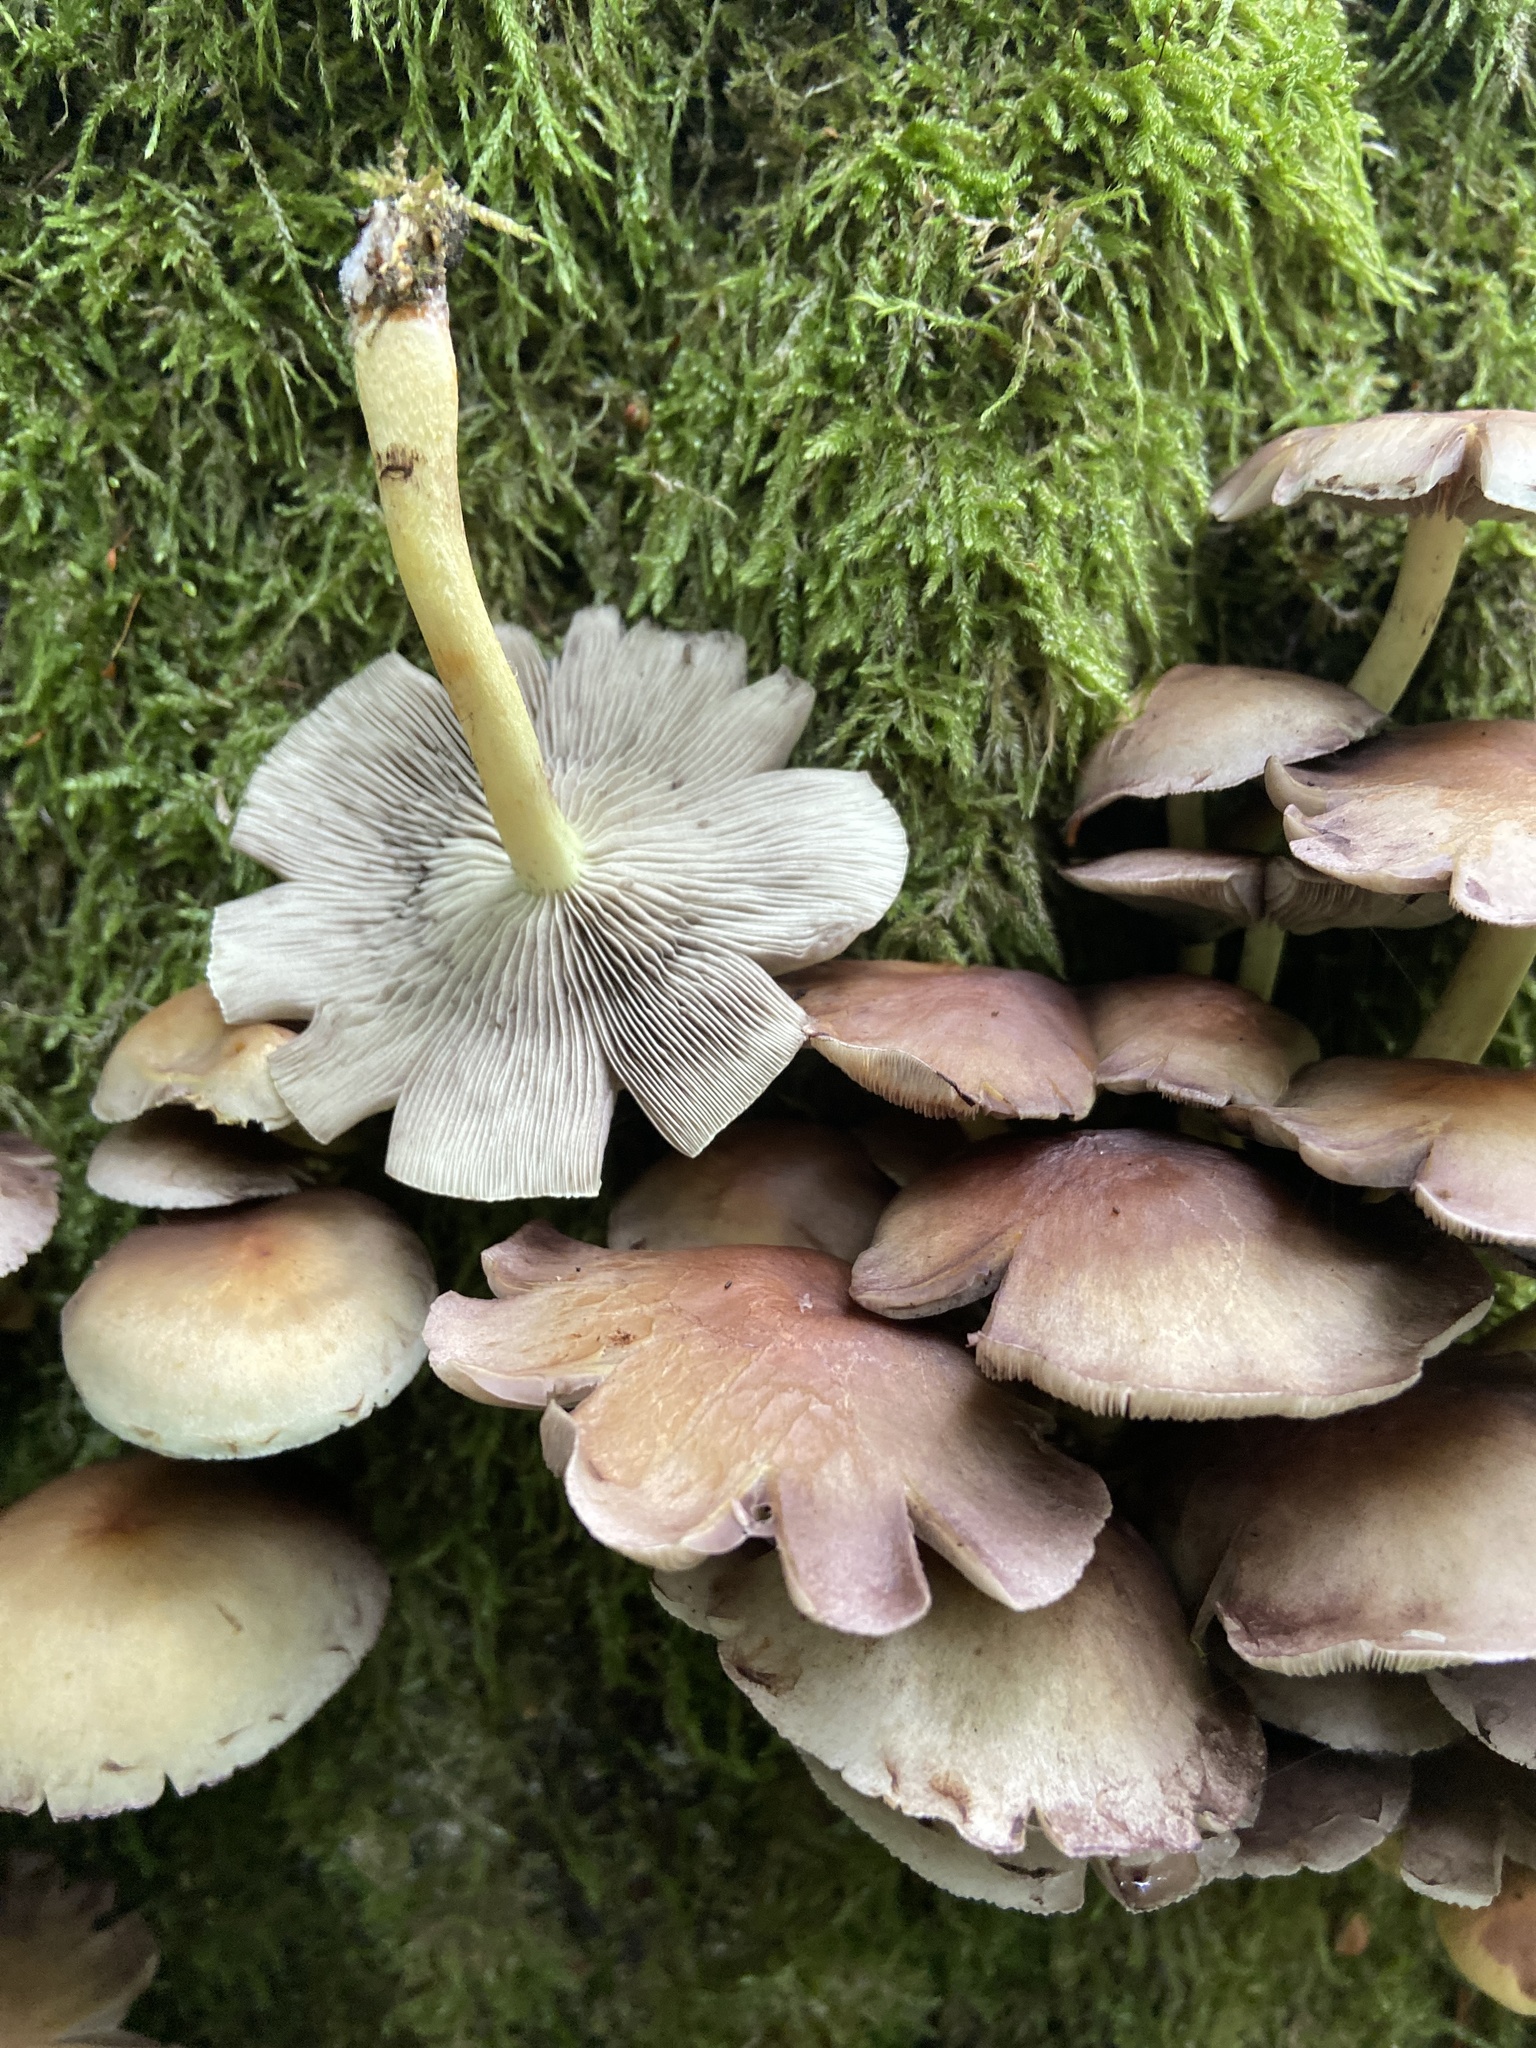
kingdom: Fungi
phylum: Basidiomycota
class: Agaricomycetes
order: Agaricales
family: Strophariaceae
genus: Hypholoma
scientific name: Hypholoma fasciculare
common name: Sulphur tuft
